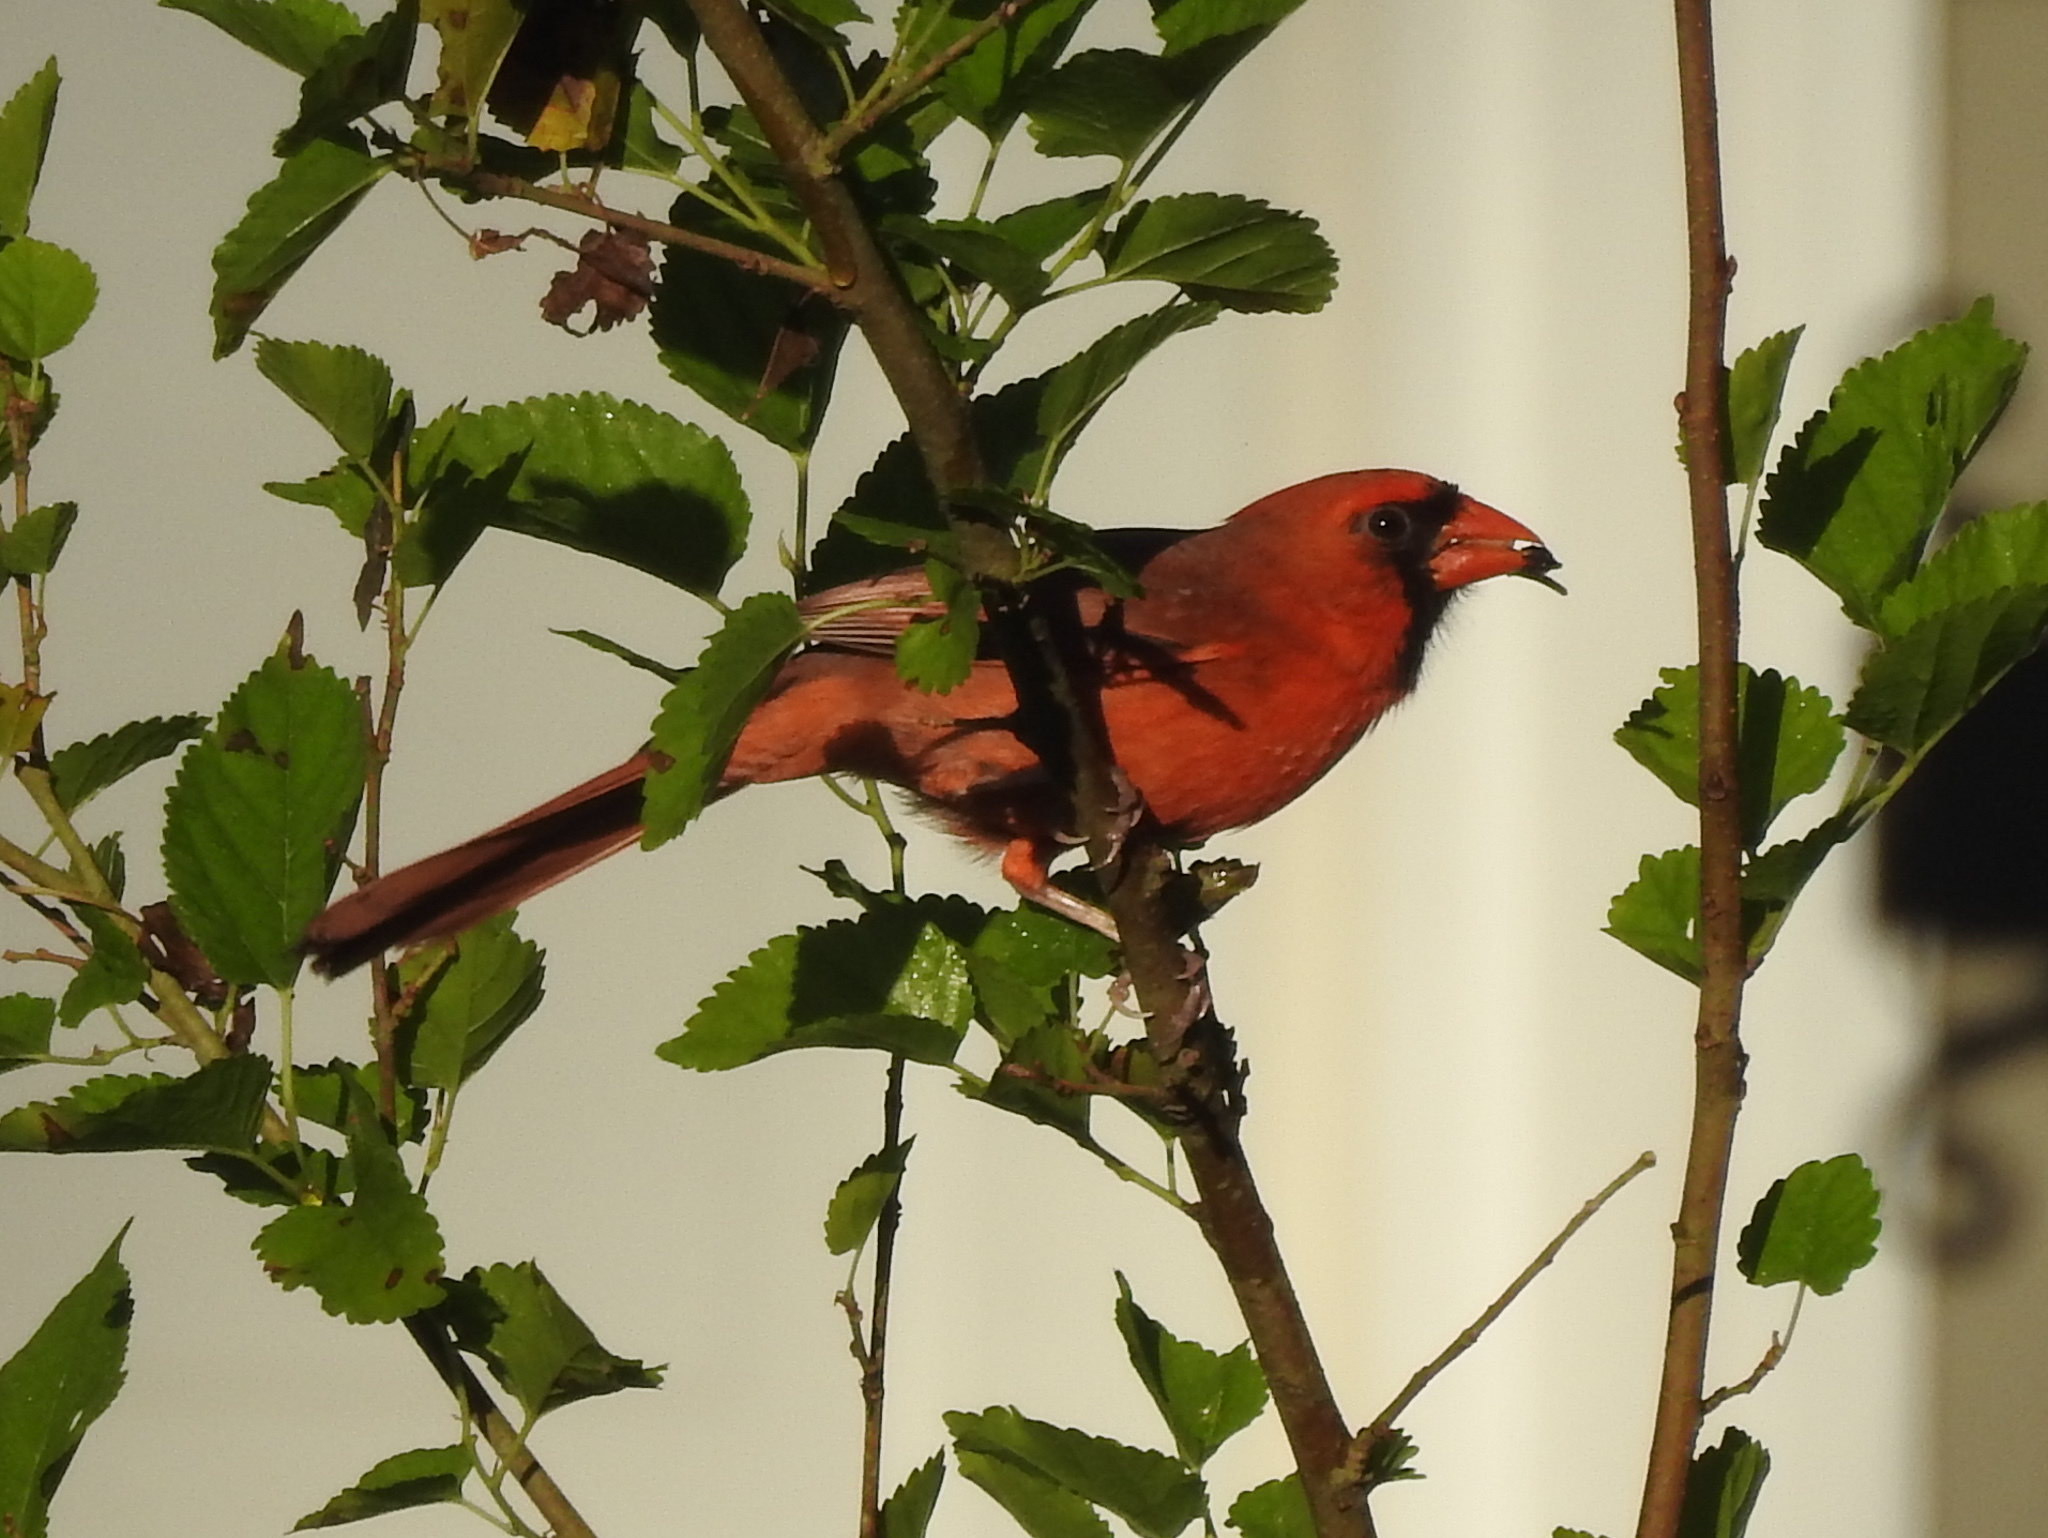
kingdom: Animalia
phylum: Chordata
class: Aves
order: Passeriformes
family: Cardinalidae
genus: Cardinalis
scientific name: Cardinalis cardinalis
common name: Northern cardinal
